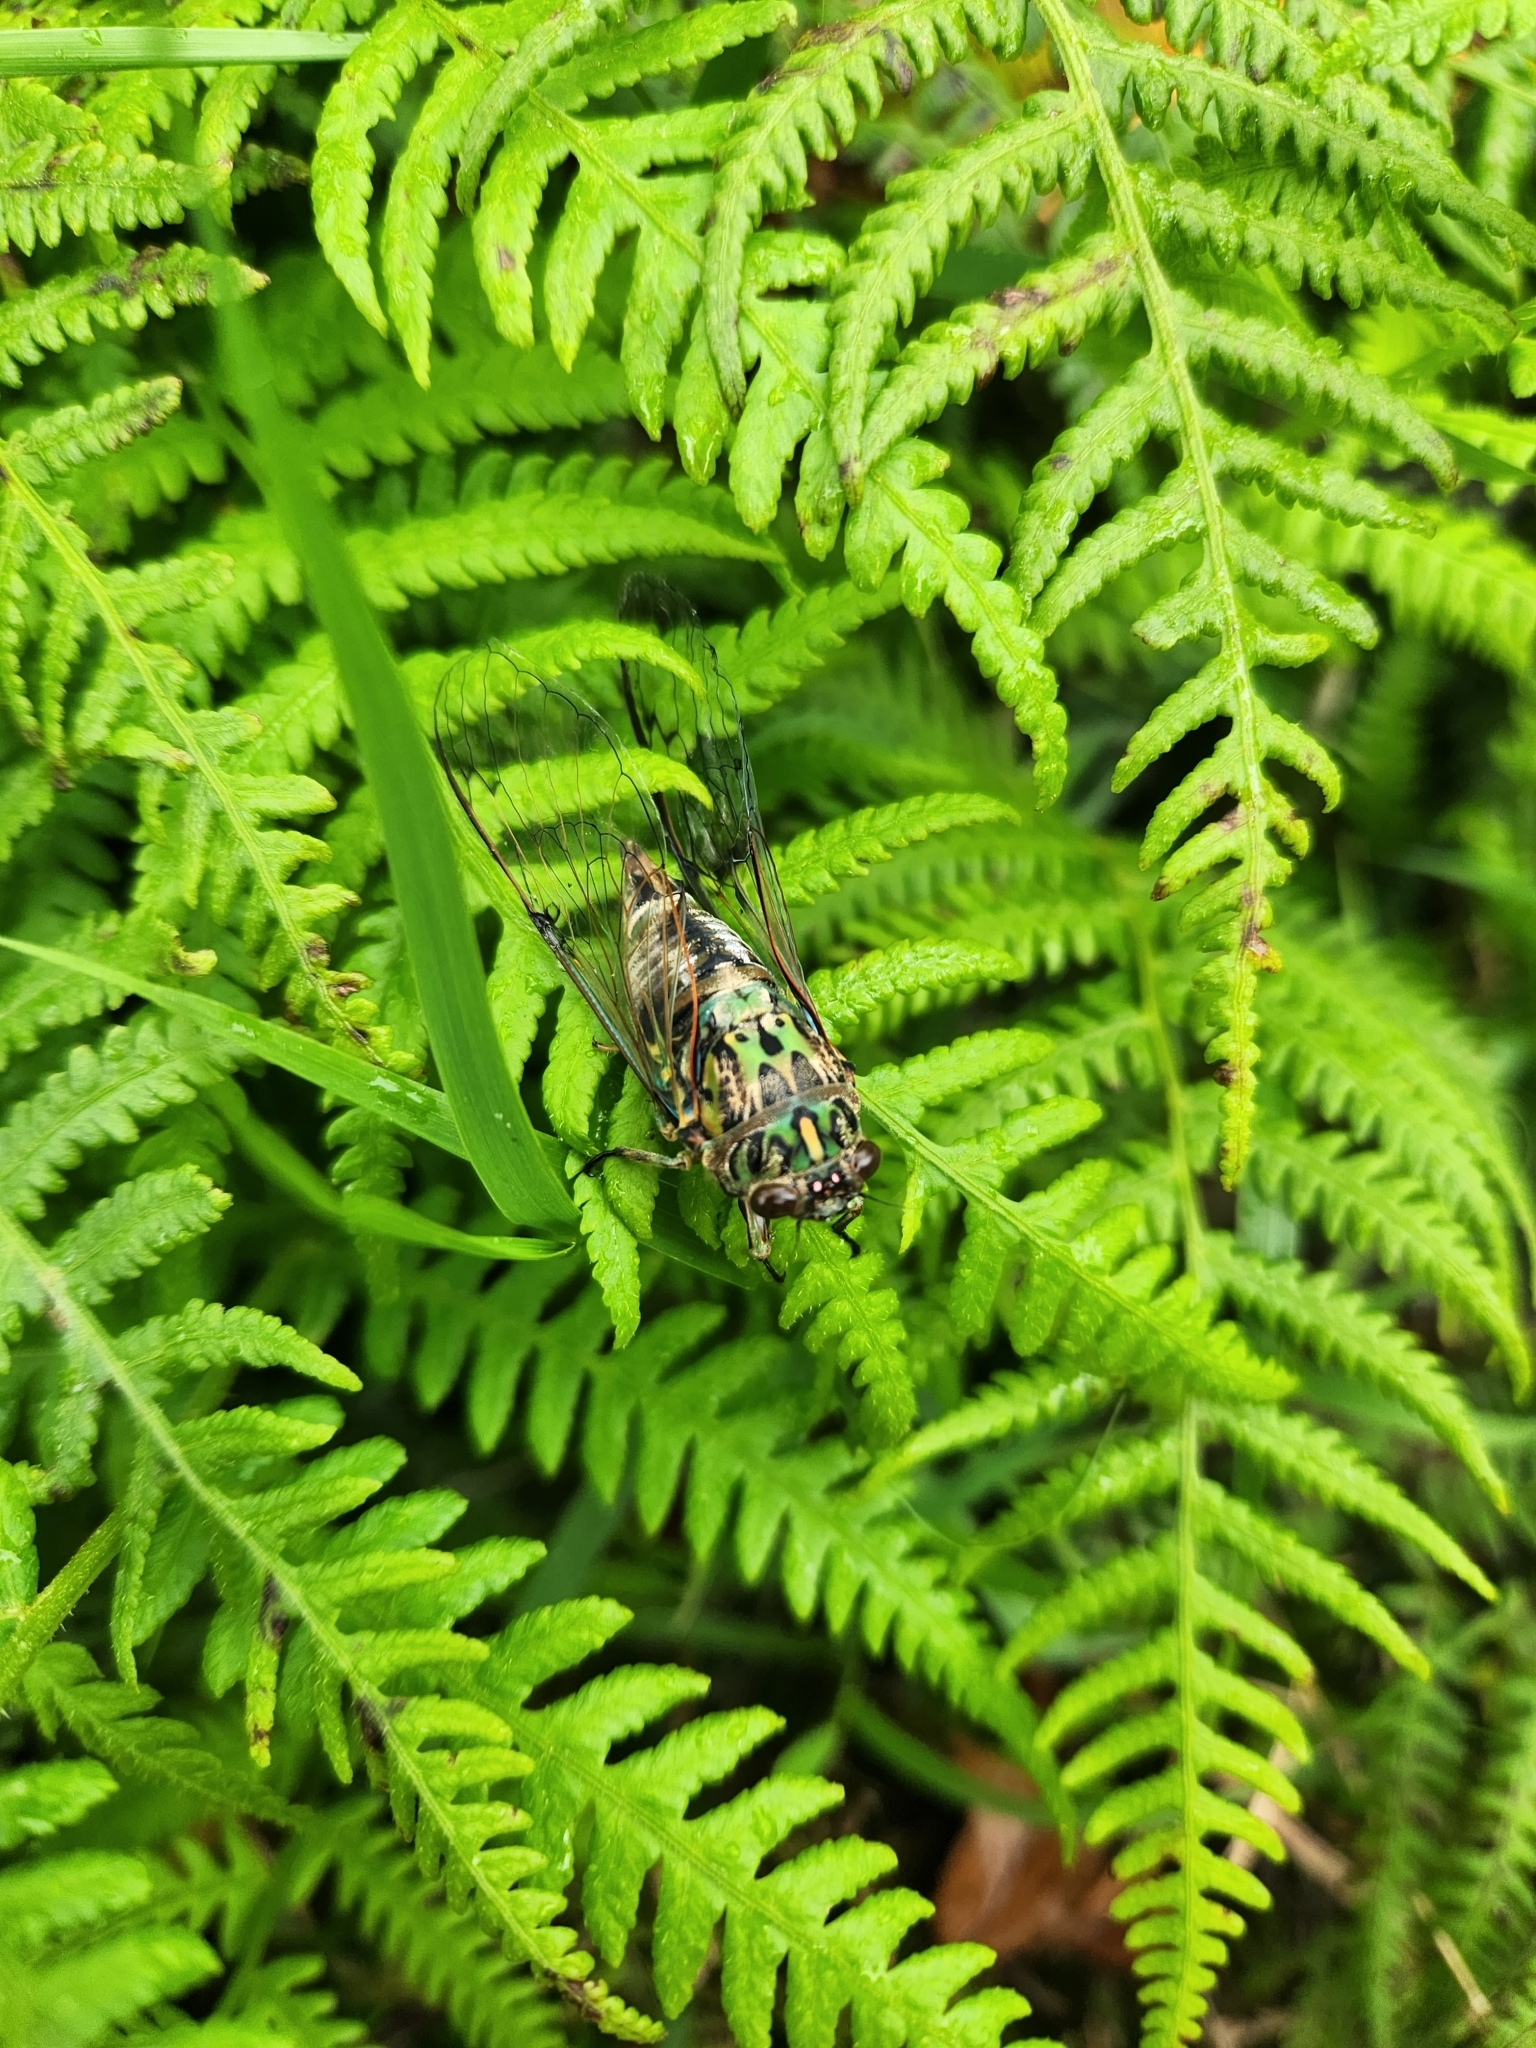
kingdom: Animalia
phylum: Arthropoda
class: Insecta
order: Hemiptera
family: Cicadidae
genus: Amphipsalta
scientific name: Amphipsalta zelandica
